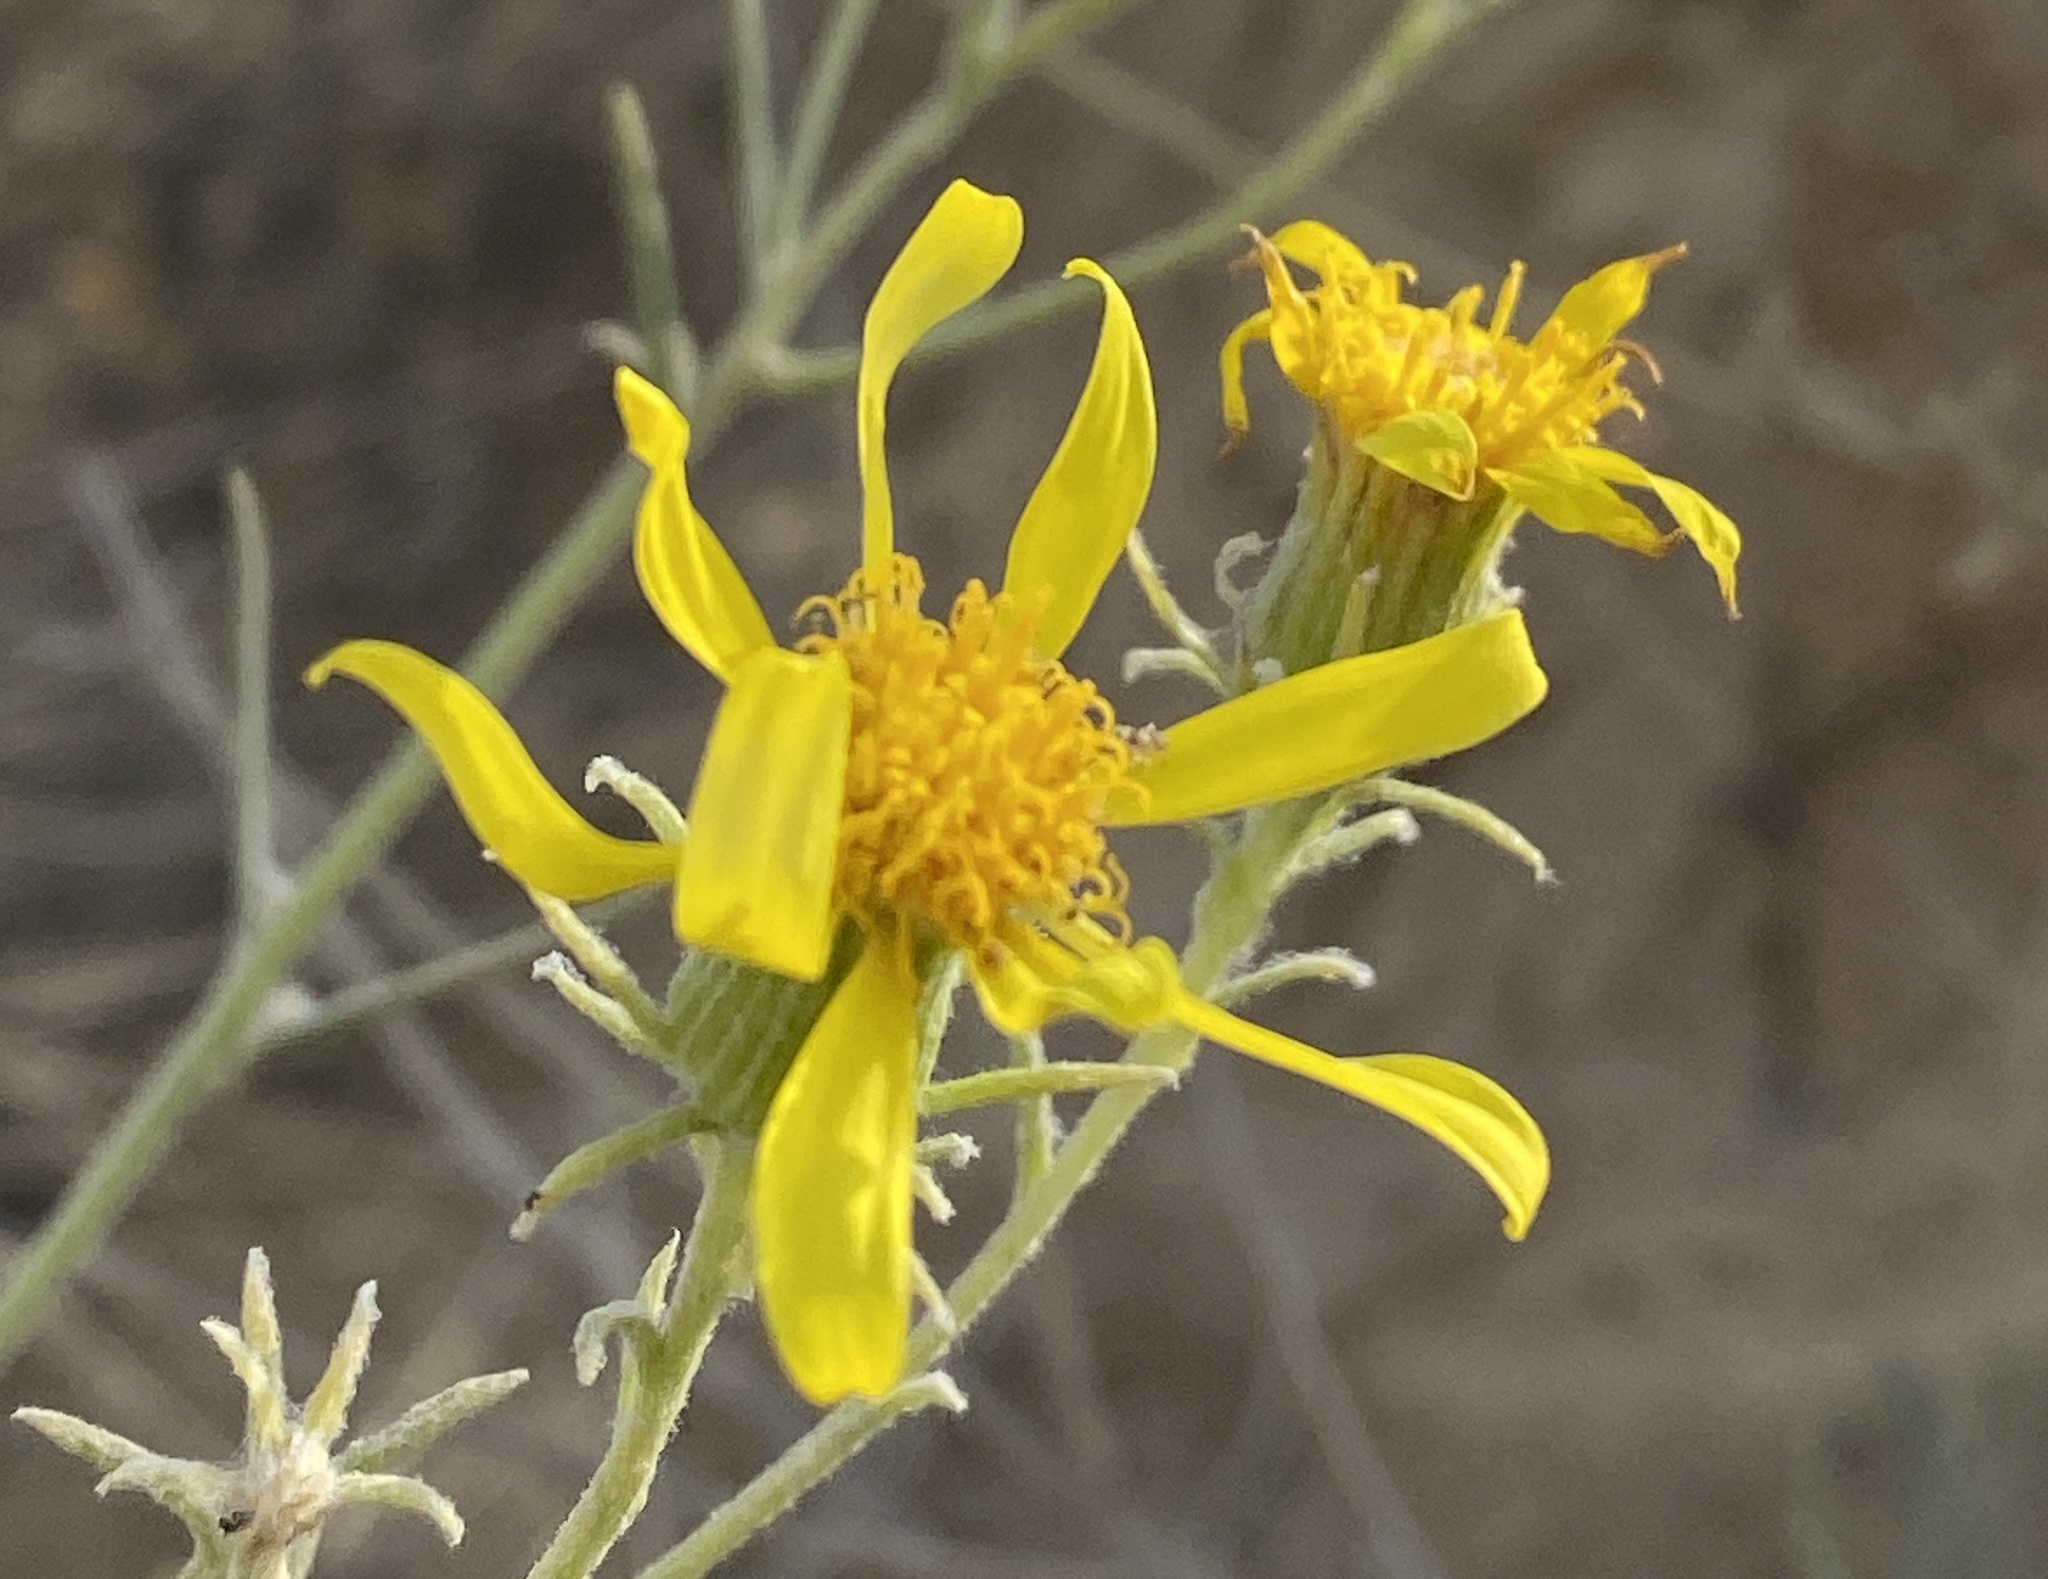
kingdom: Plantae
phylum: Tracheophyta
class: Magnoliopsida
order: Asterales
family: Asteraceae
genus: Senecio
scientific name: Senecio flaccidus
